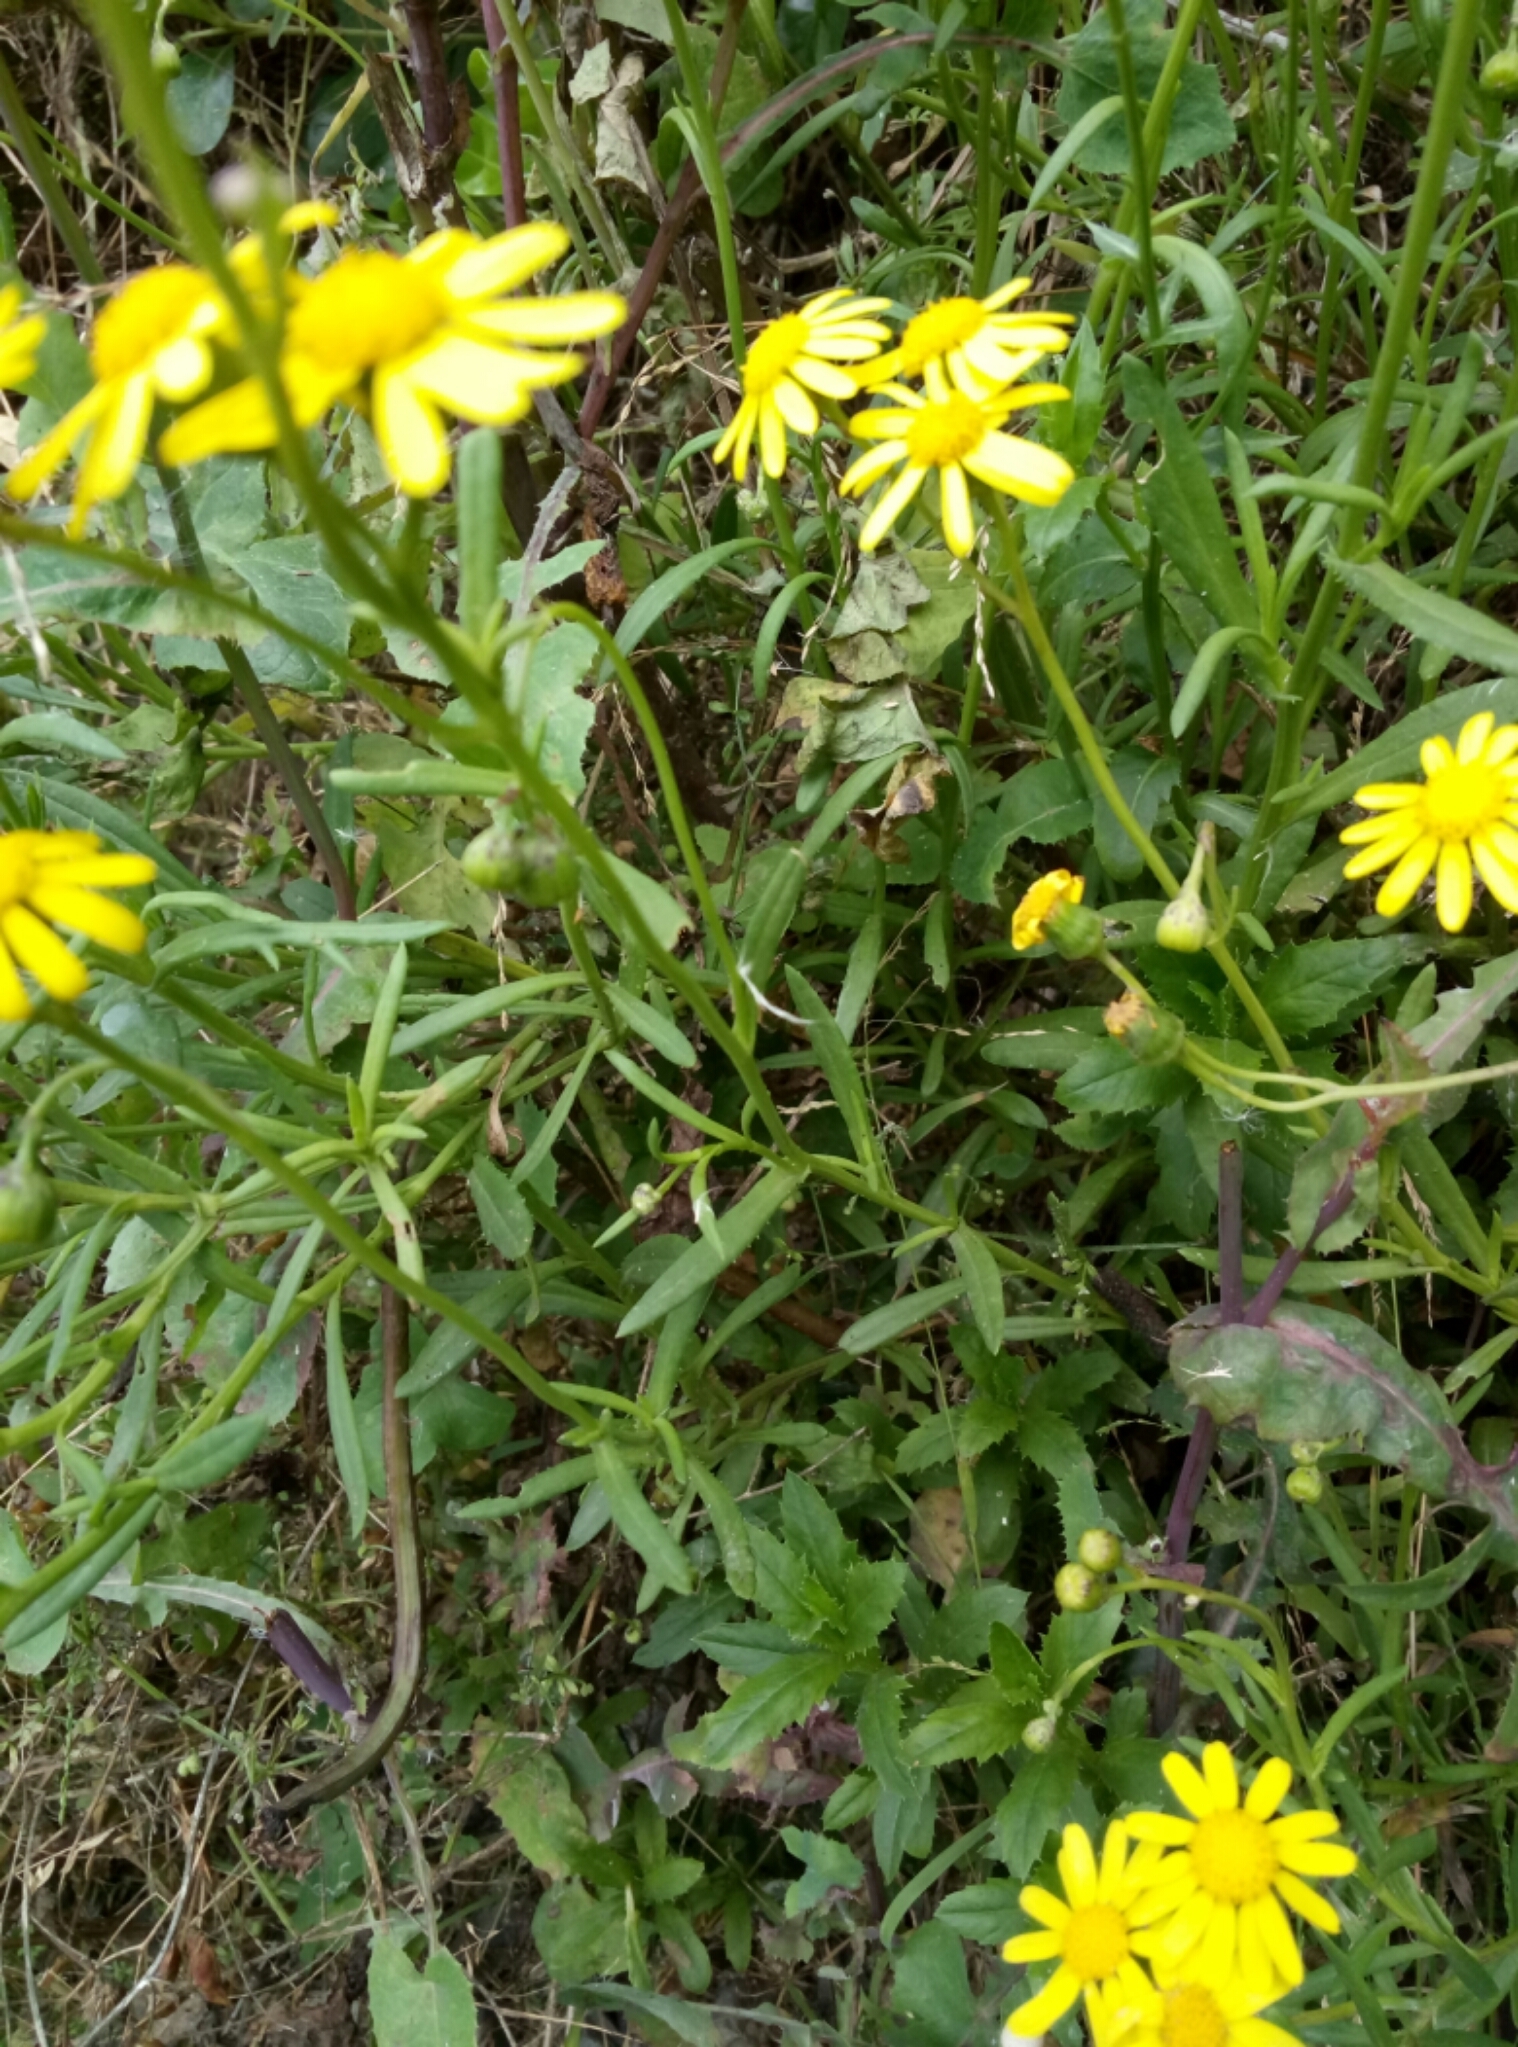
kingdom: Plantae
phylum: Tracheophyta
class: Magnoliopsida
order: Asterales
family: Asteraceae
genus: Senecio
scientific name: Senecio skirrhodon
